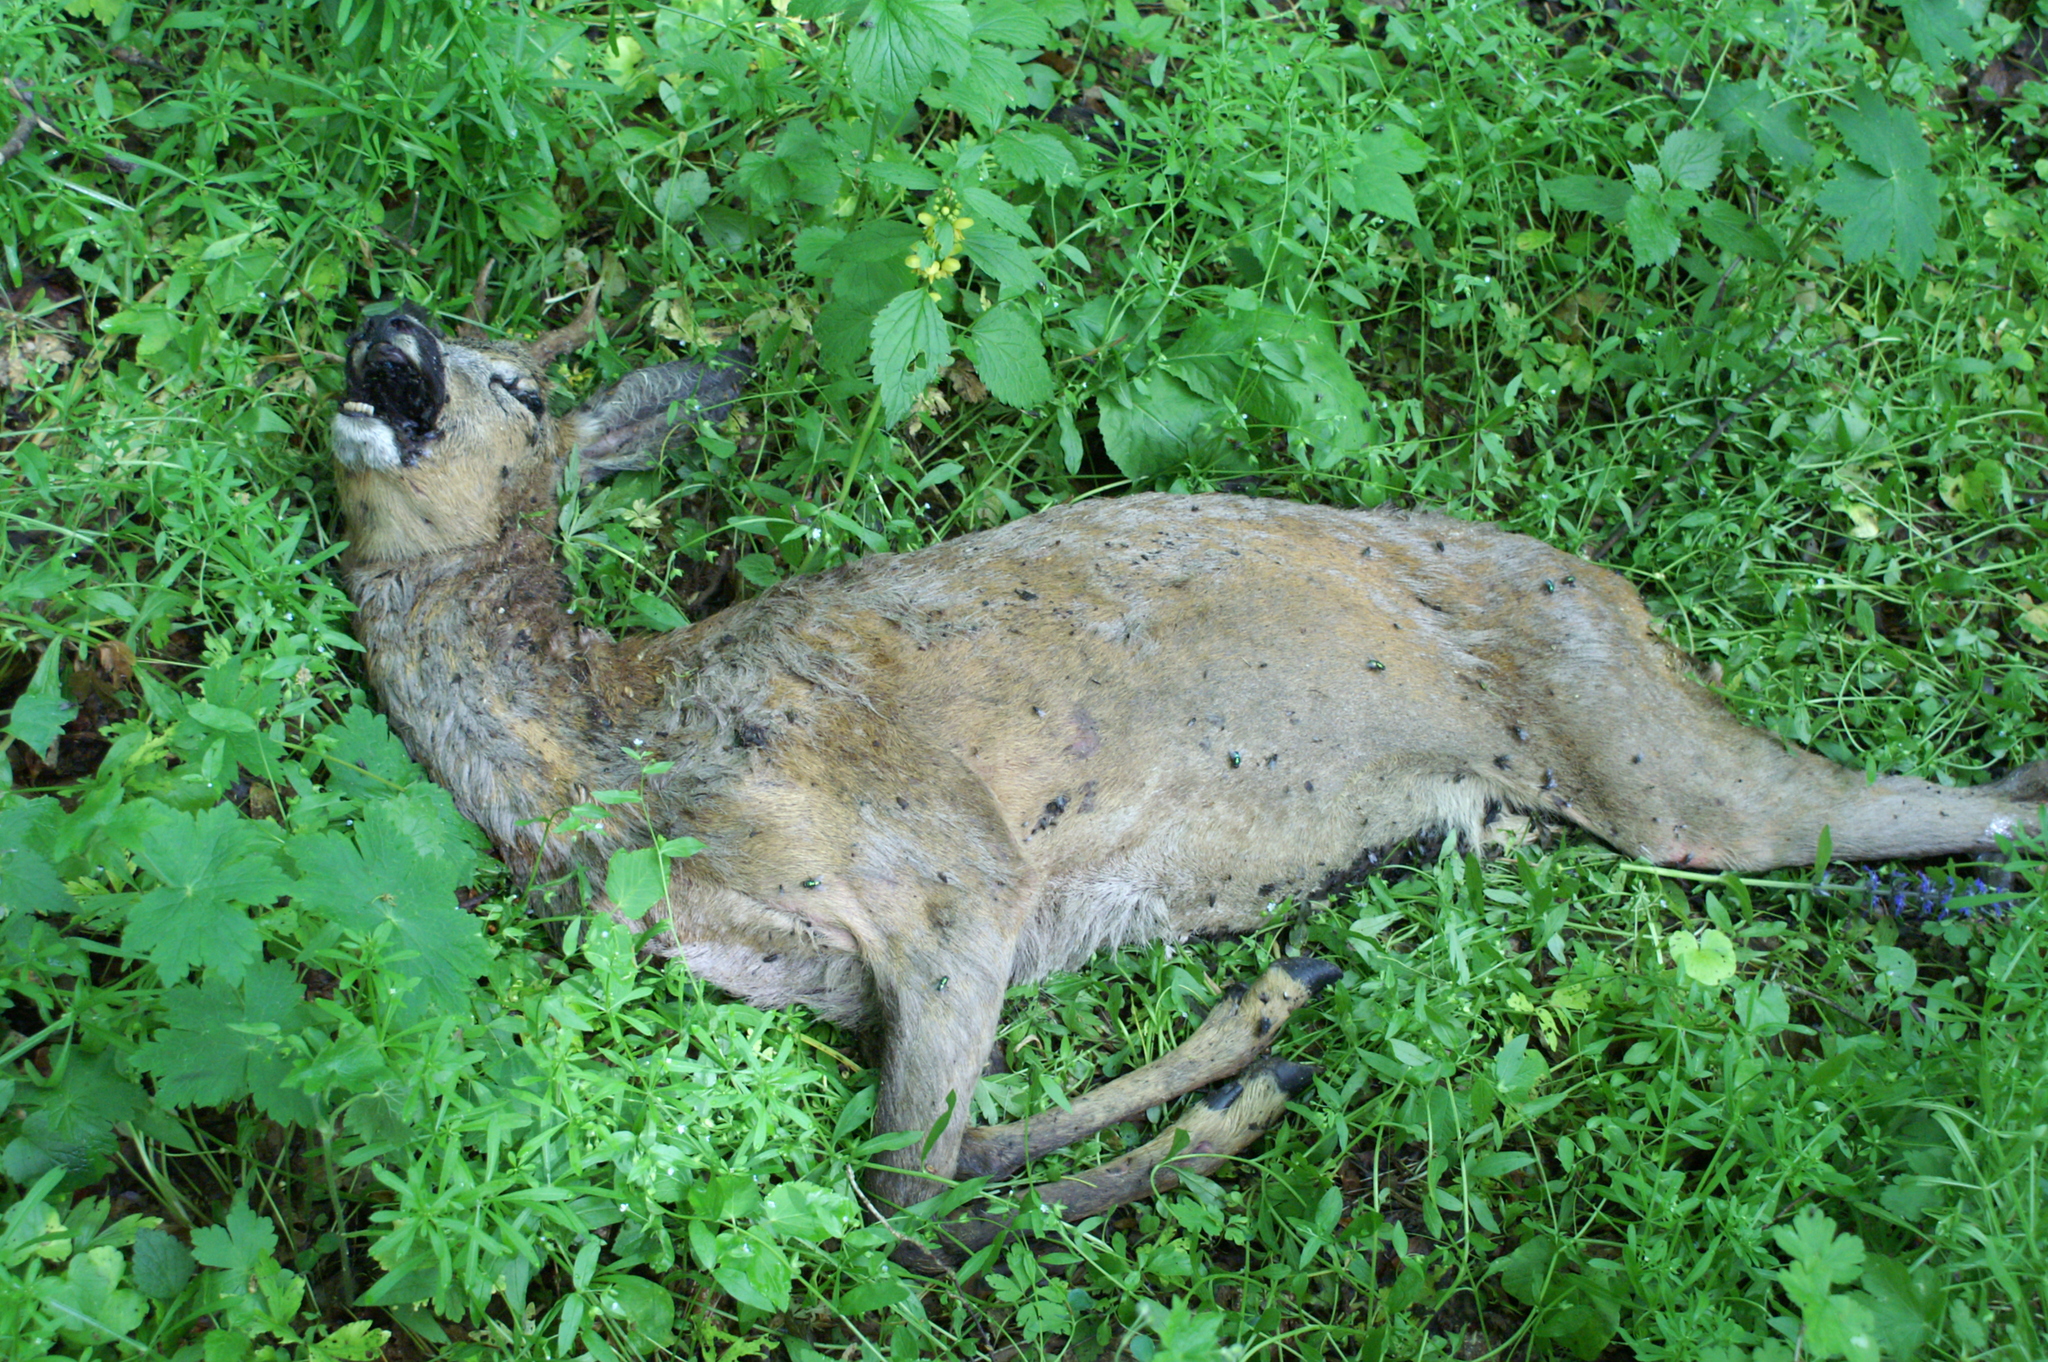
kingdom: Animalia
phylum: Chordata
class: Mammalia
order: Artiodactyla
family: Cervidae
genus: Capreolus
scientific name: Capreolus capreolus
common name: Western roe deer
